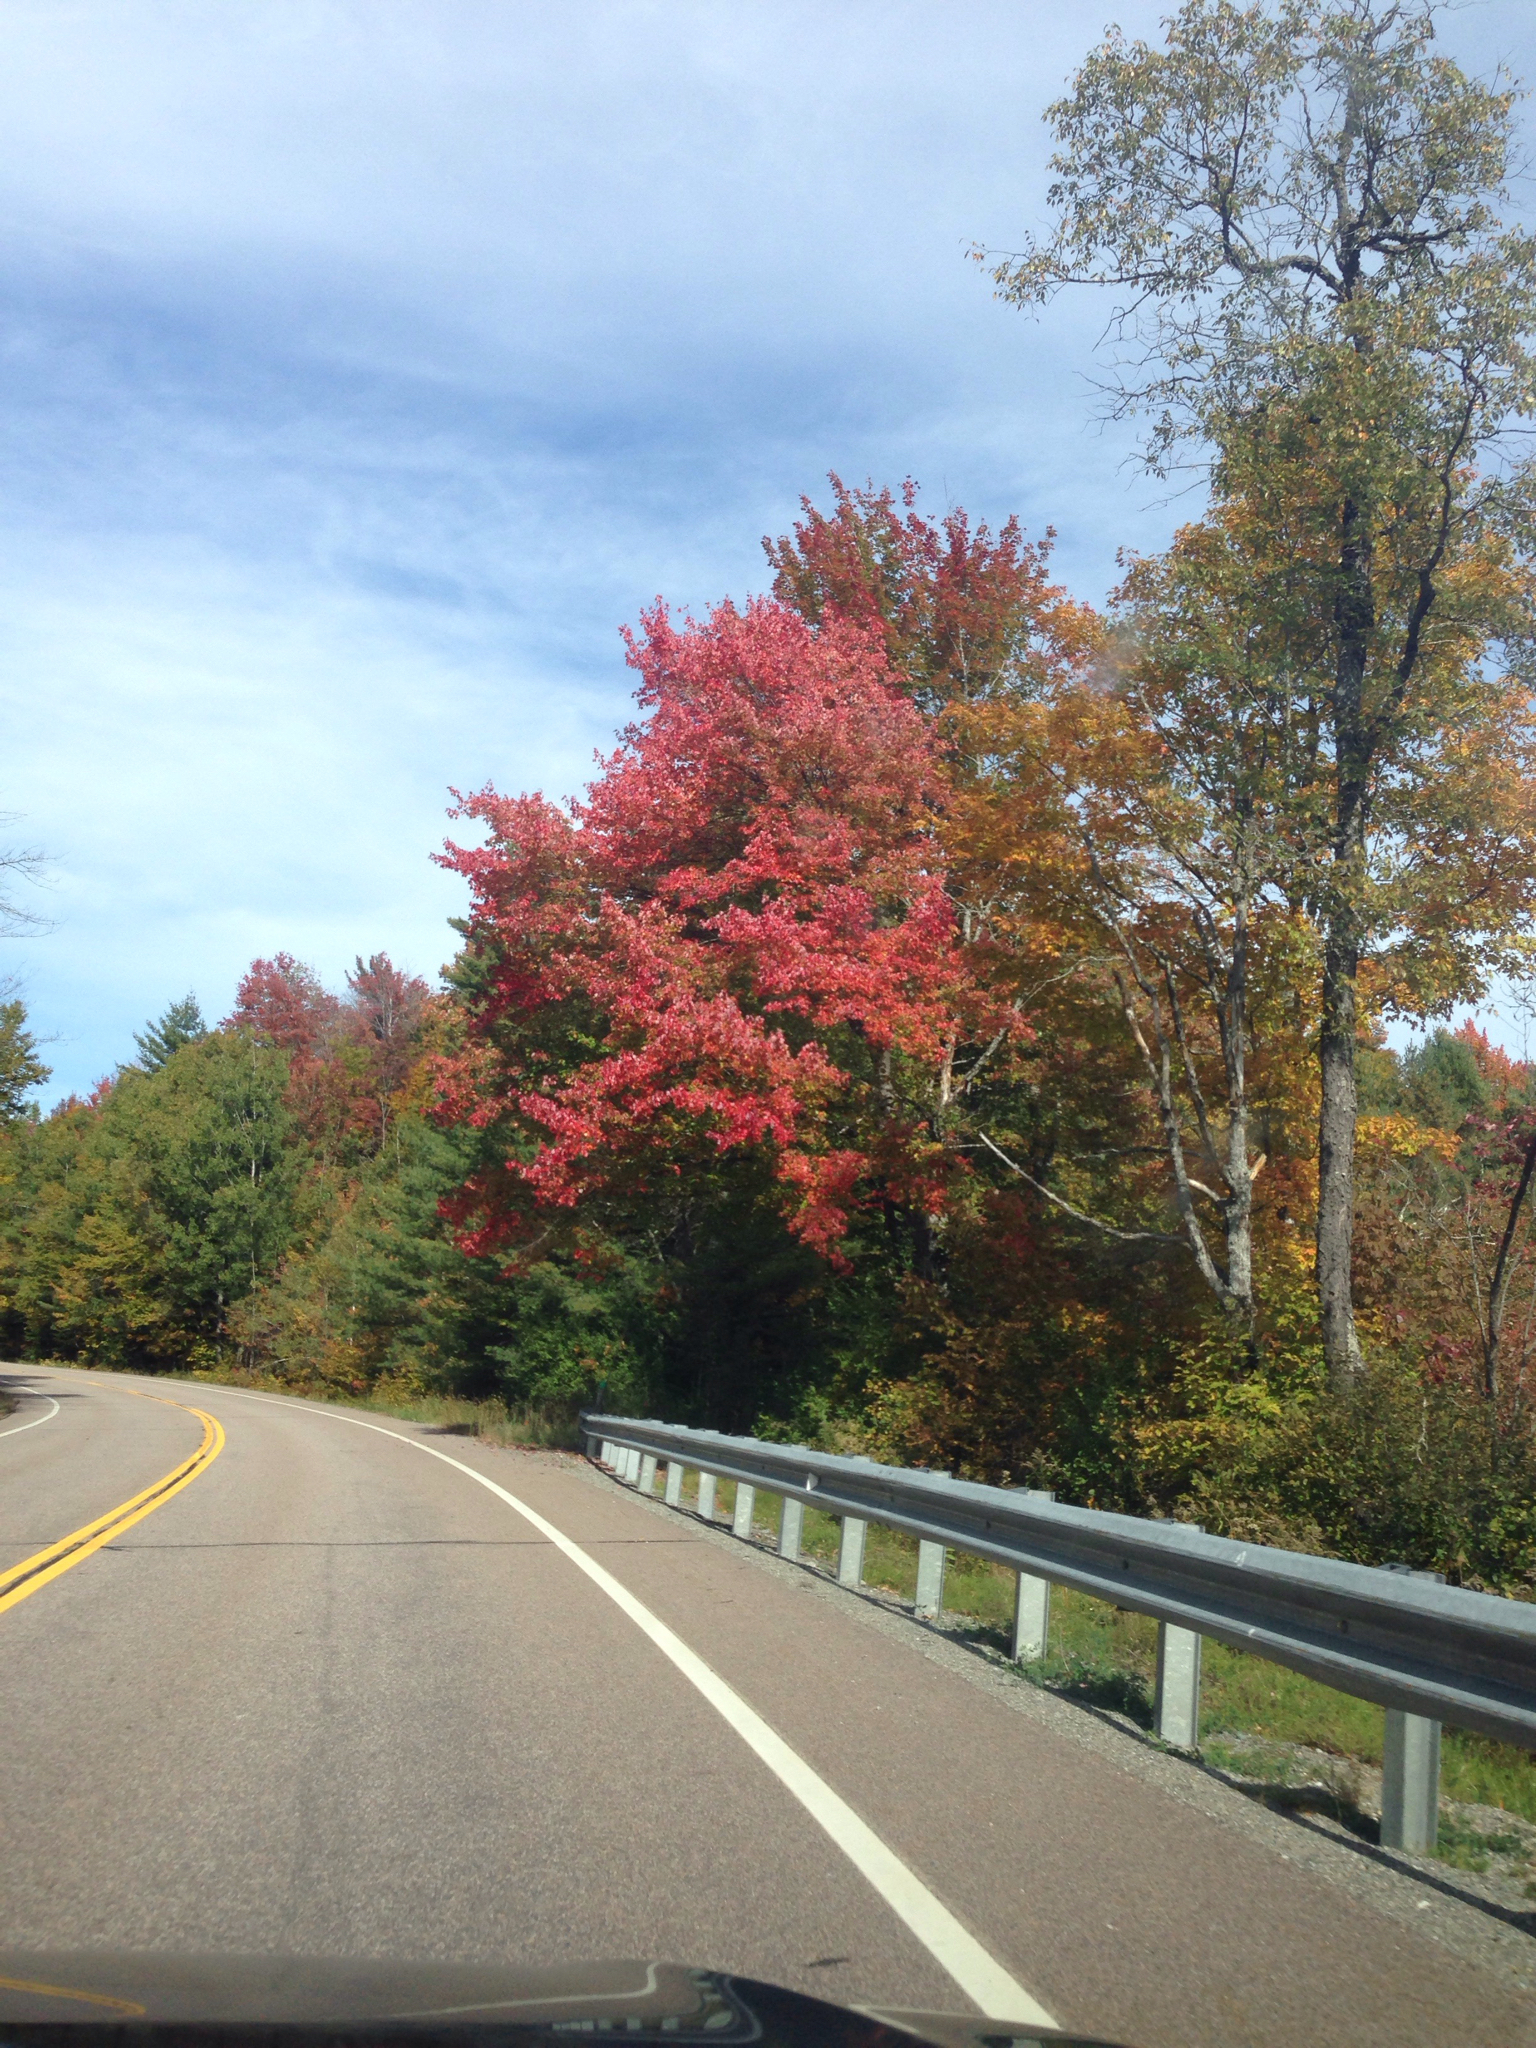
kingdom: Plantae
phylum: Tracheophyta
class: Magnoliopsida
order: Rosales
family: Rosaceae
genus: Prunus
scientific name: Prunus serotina
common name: Black cherry
